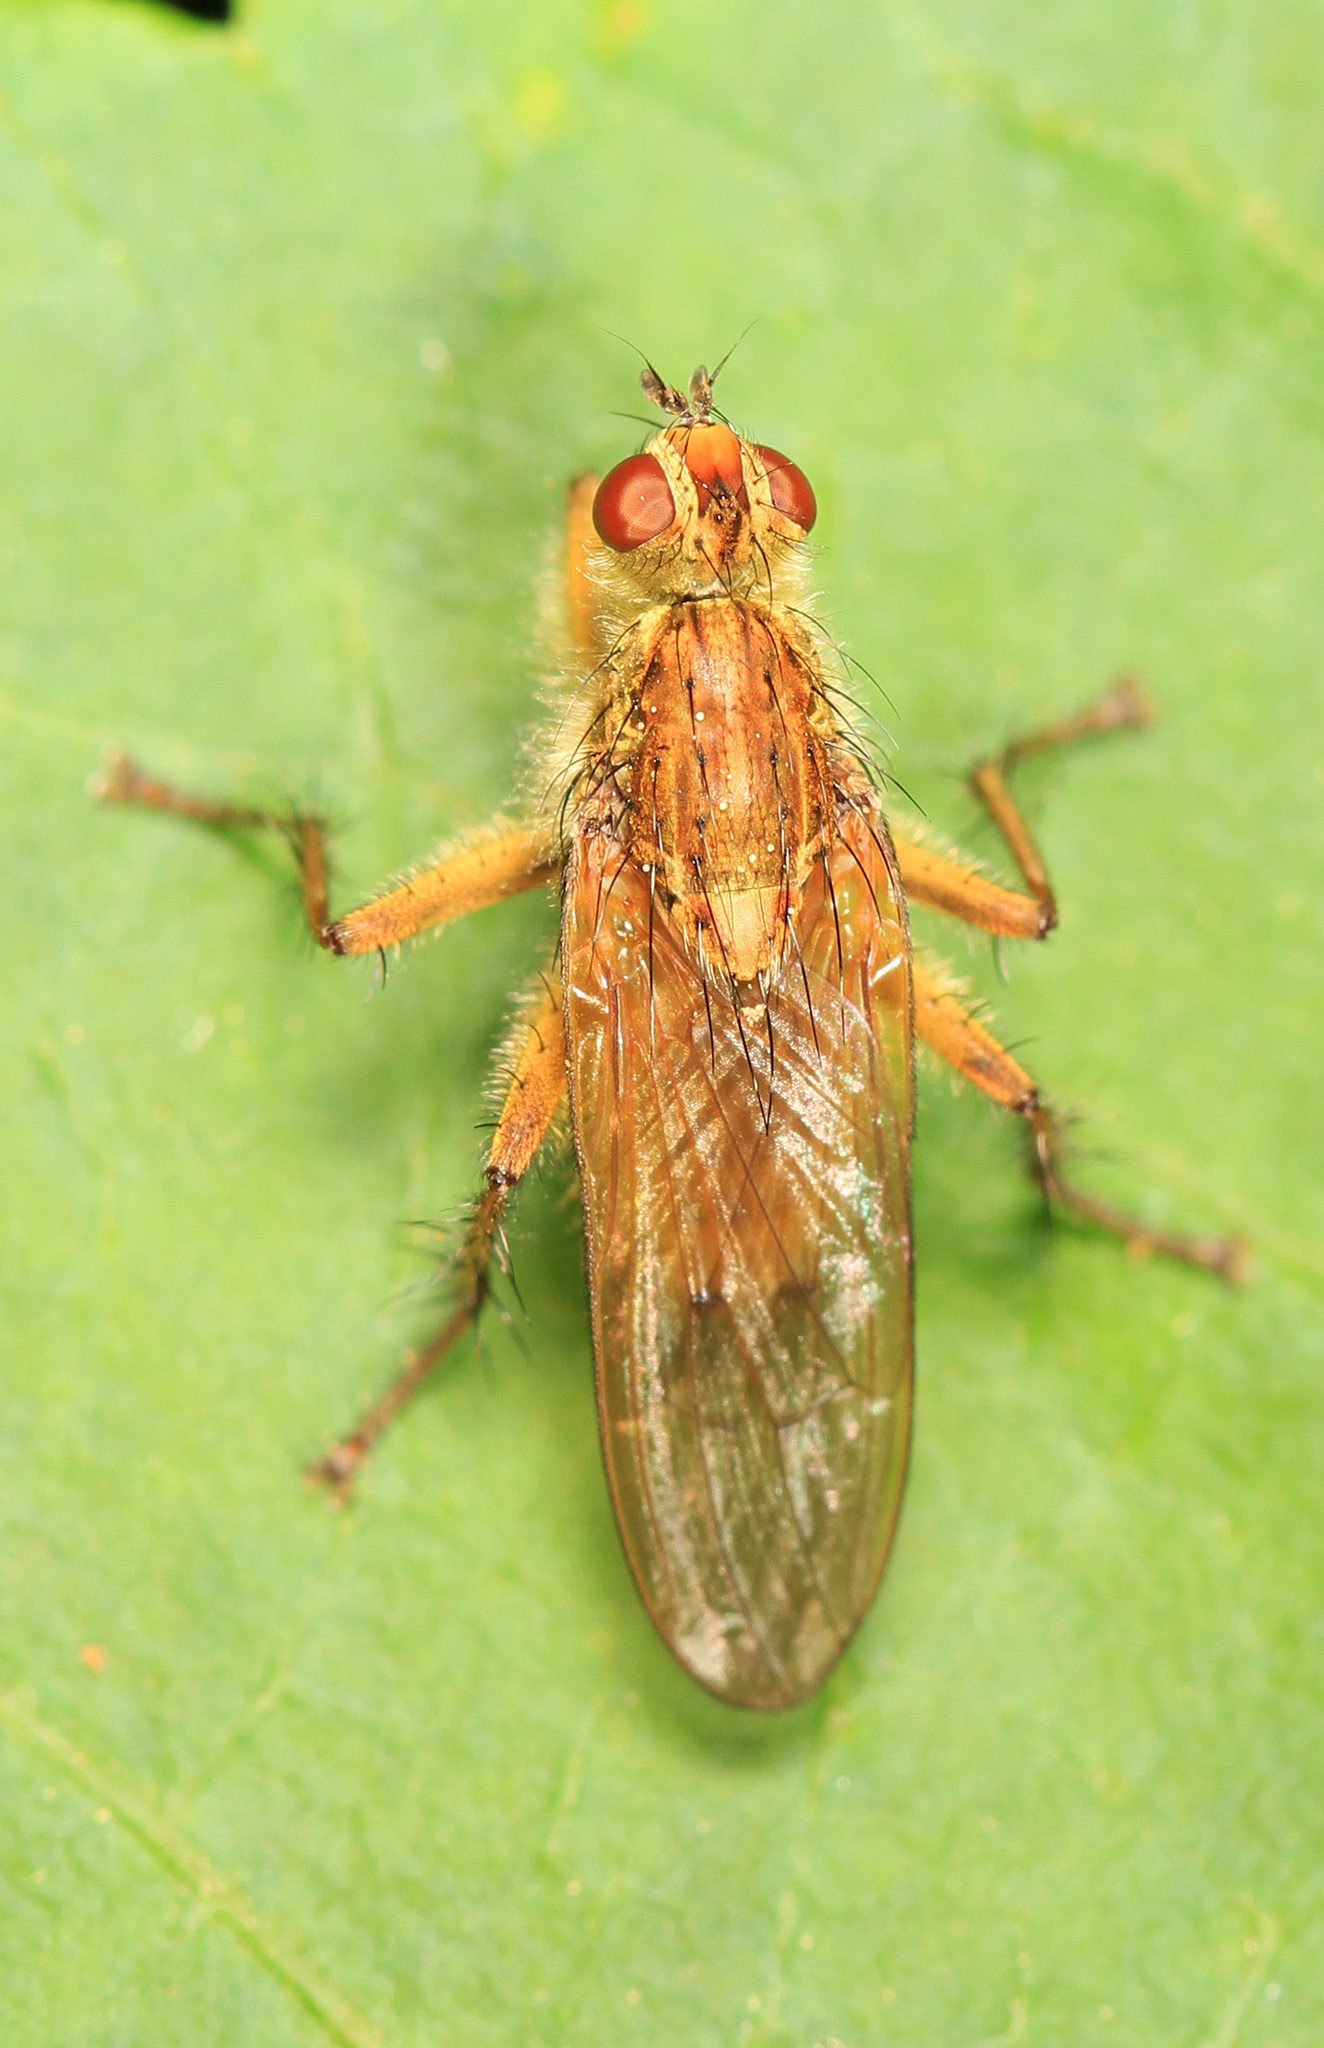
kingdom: Animalia
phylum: Arthropoda
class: Insecta
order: Diptera
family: Scathophagidae
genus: Scathophaga
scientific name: Scathophaga stercoraria
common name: Yellow dung fly
